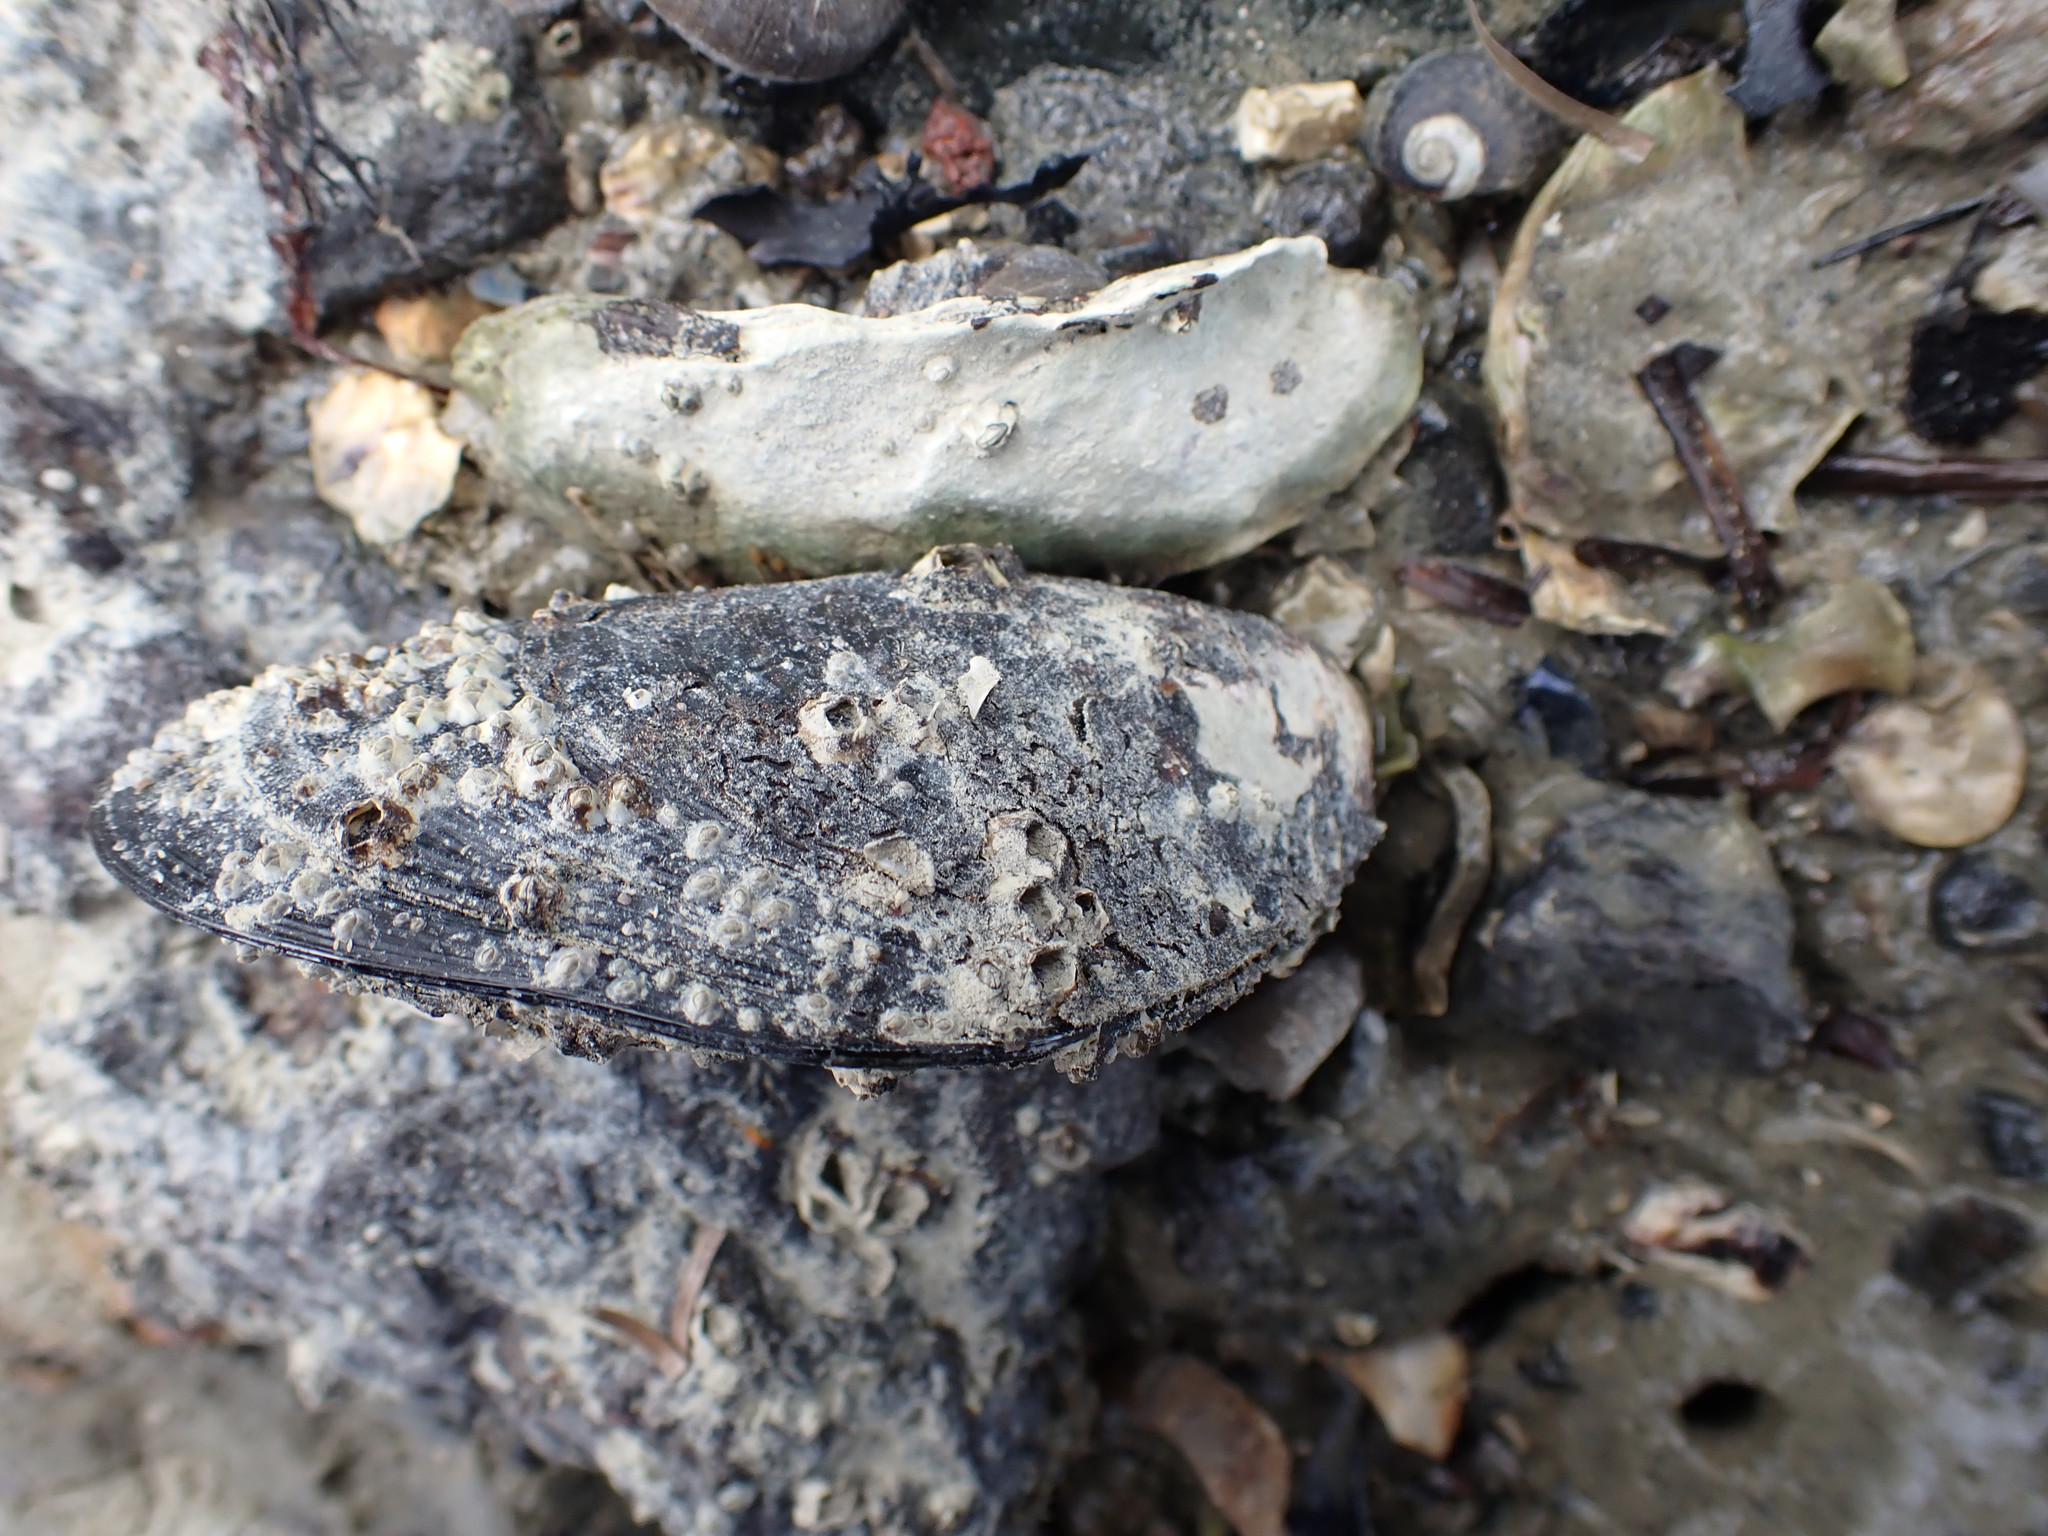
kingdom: Animalia
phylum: Mollusca
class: Bivalvia
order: Mytilida
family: Mytilidae
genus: Perna
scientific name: Perna canaliculus
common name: New zealand greenshelltm
